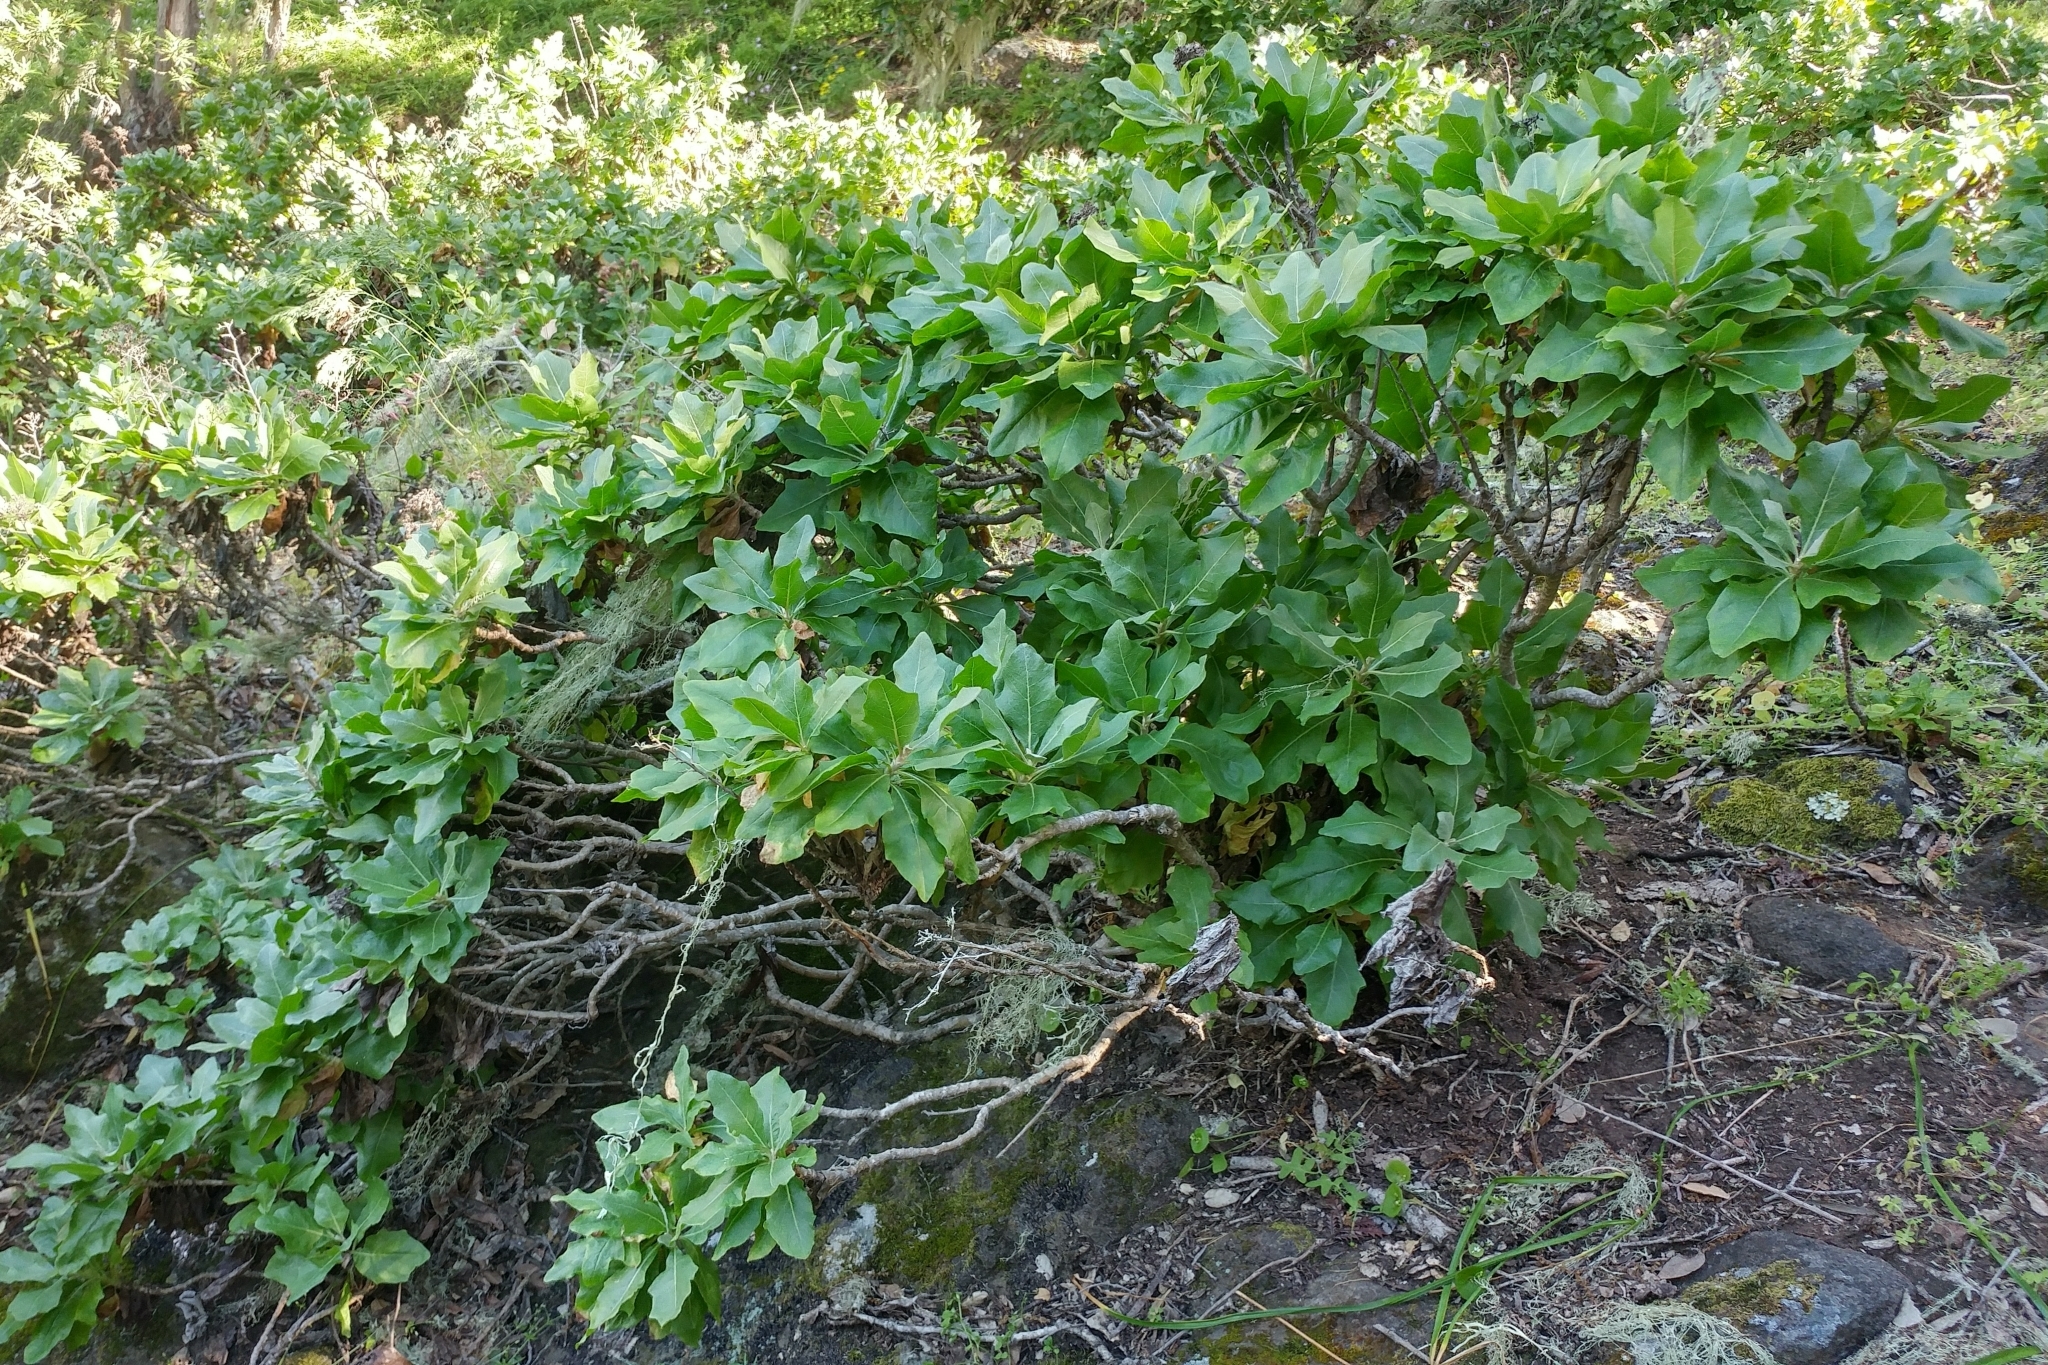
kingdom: Plantae
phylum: Tracheophyta
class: Magnoliopsida
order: Asterales
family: Asteraceae
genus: Munzothamnus
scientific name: Munzothamnus blairii
